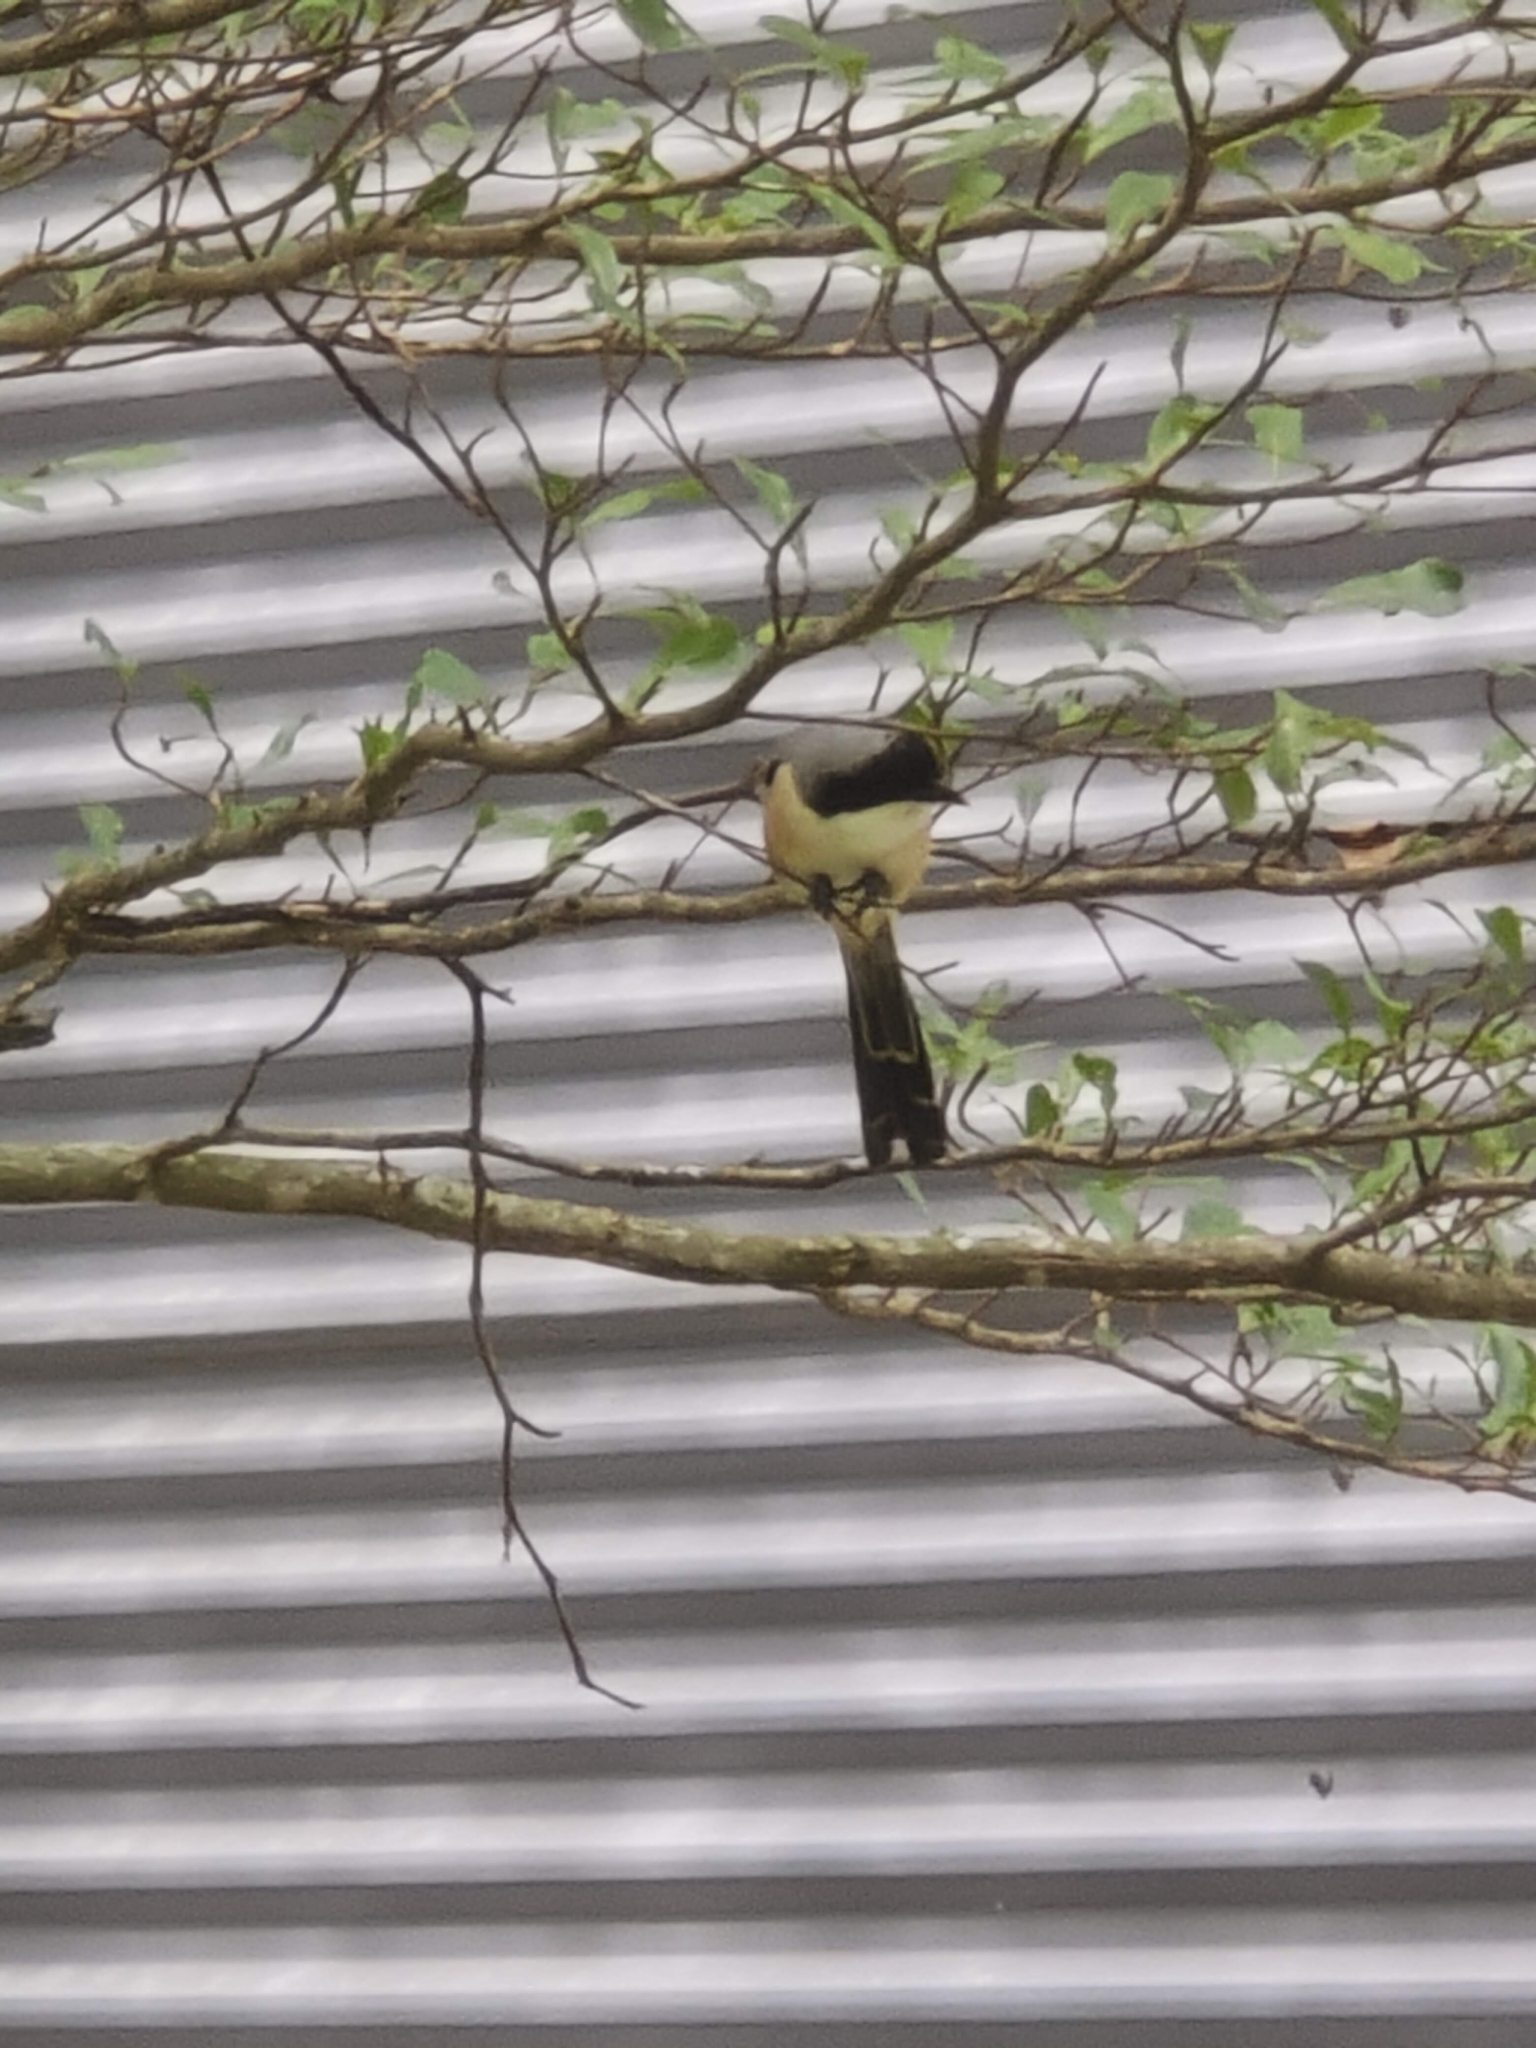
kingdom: Animalia
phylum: Chordata
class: Aves
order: Passeriformes
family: Laniidae
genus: Lanius
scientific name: Lanius schach
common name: Long-tailed shrike
